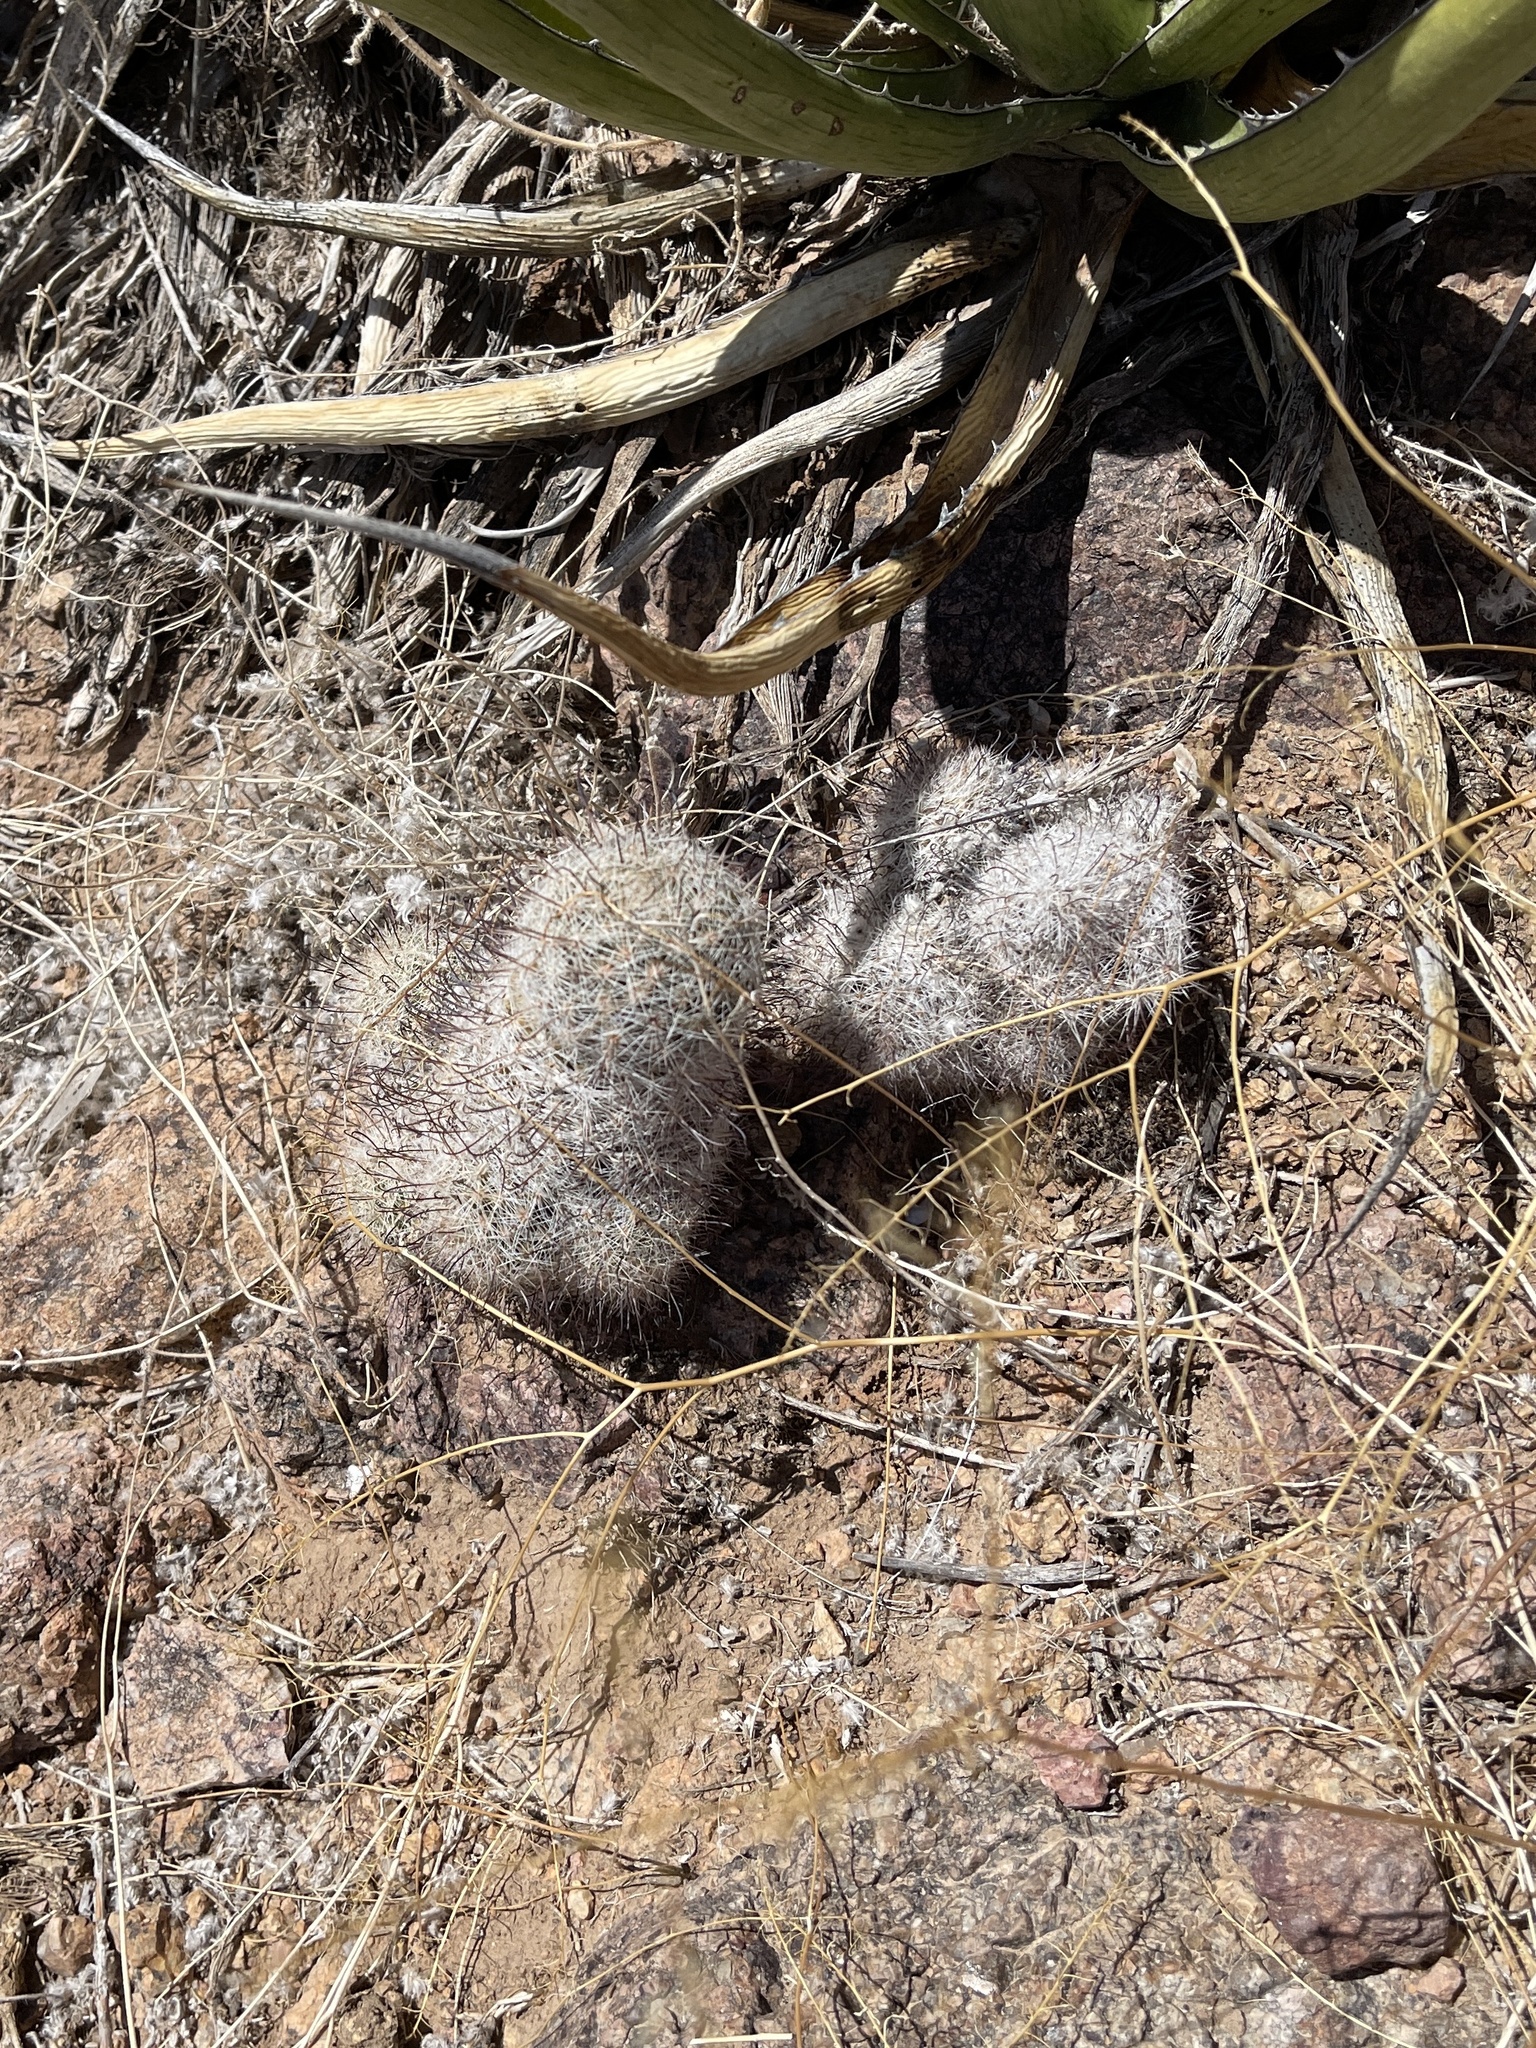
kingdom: Plantae
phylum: Tracheophyta
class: Magnoliopsida
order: Caryophyllales
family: Cactaceae
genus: Cochemiea
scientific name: Cochemiea grahamii
